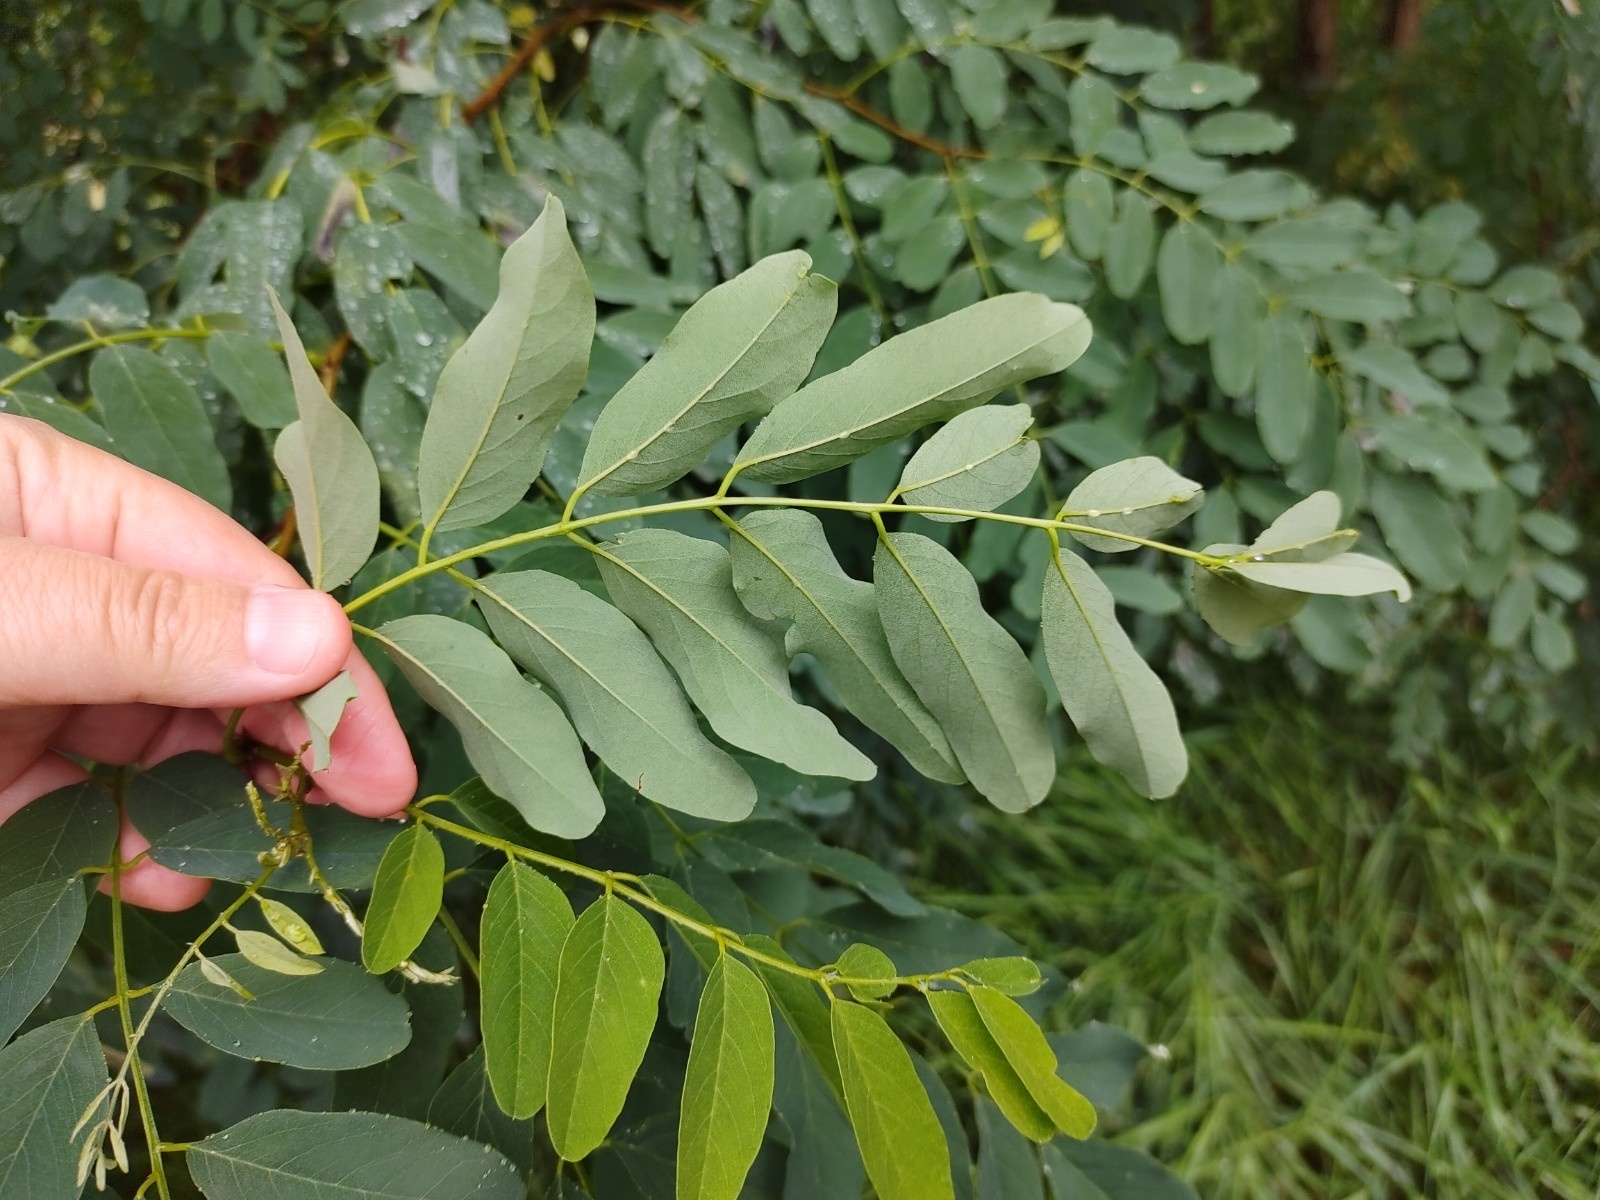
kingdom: Plantae
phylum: Tracheophyta
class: Magnoliopsida
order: Fabales
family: Fabaceae
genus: Robinia
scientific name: Robinia pseudoacacia
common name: Black locust
